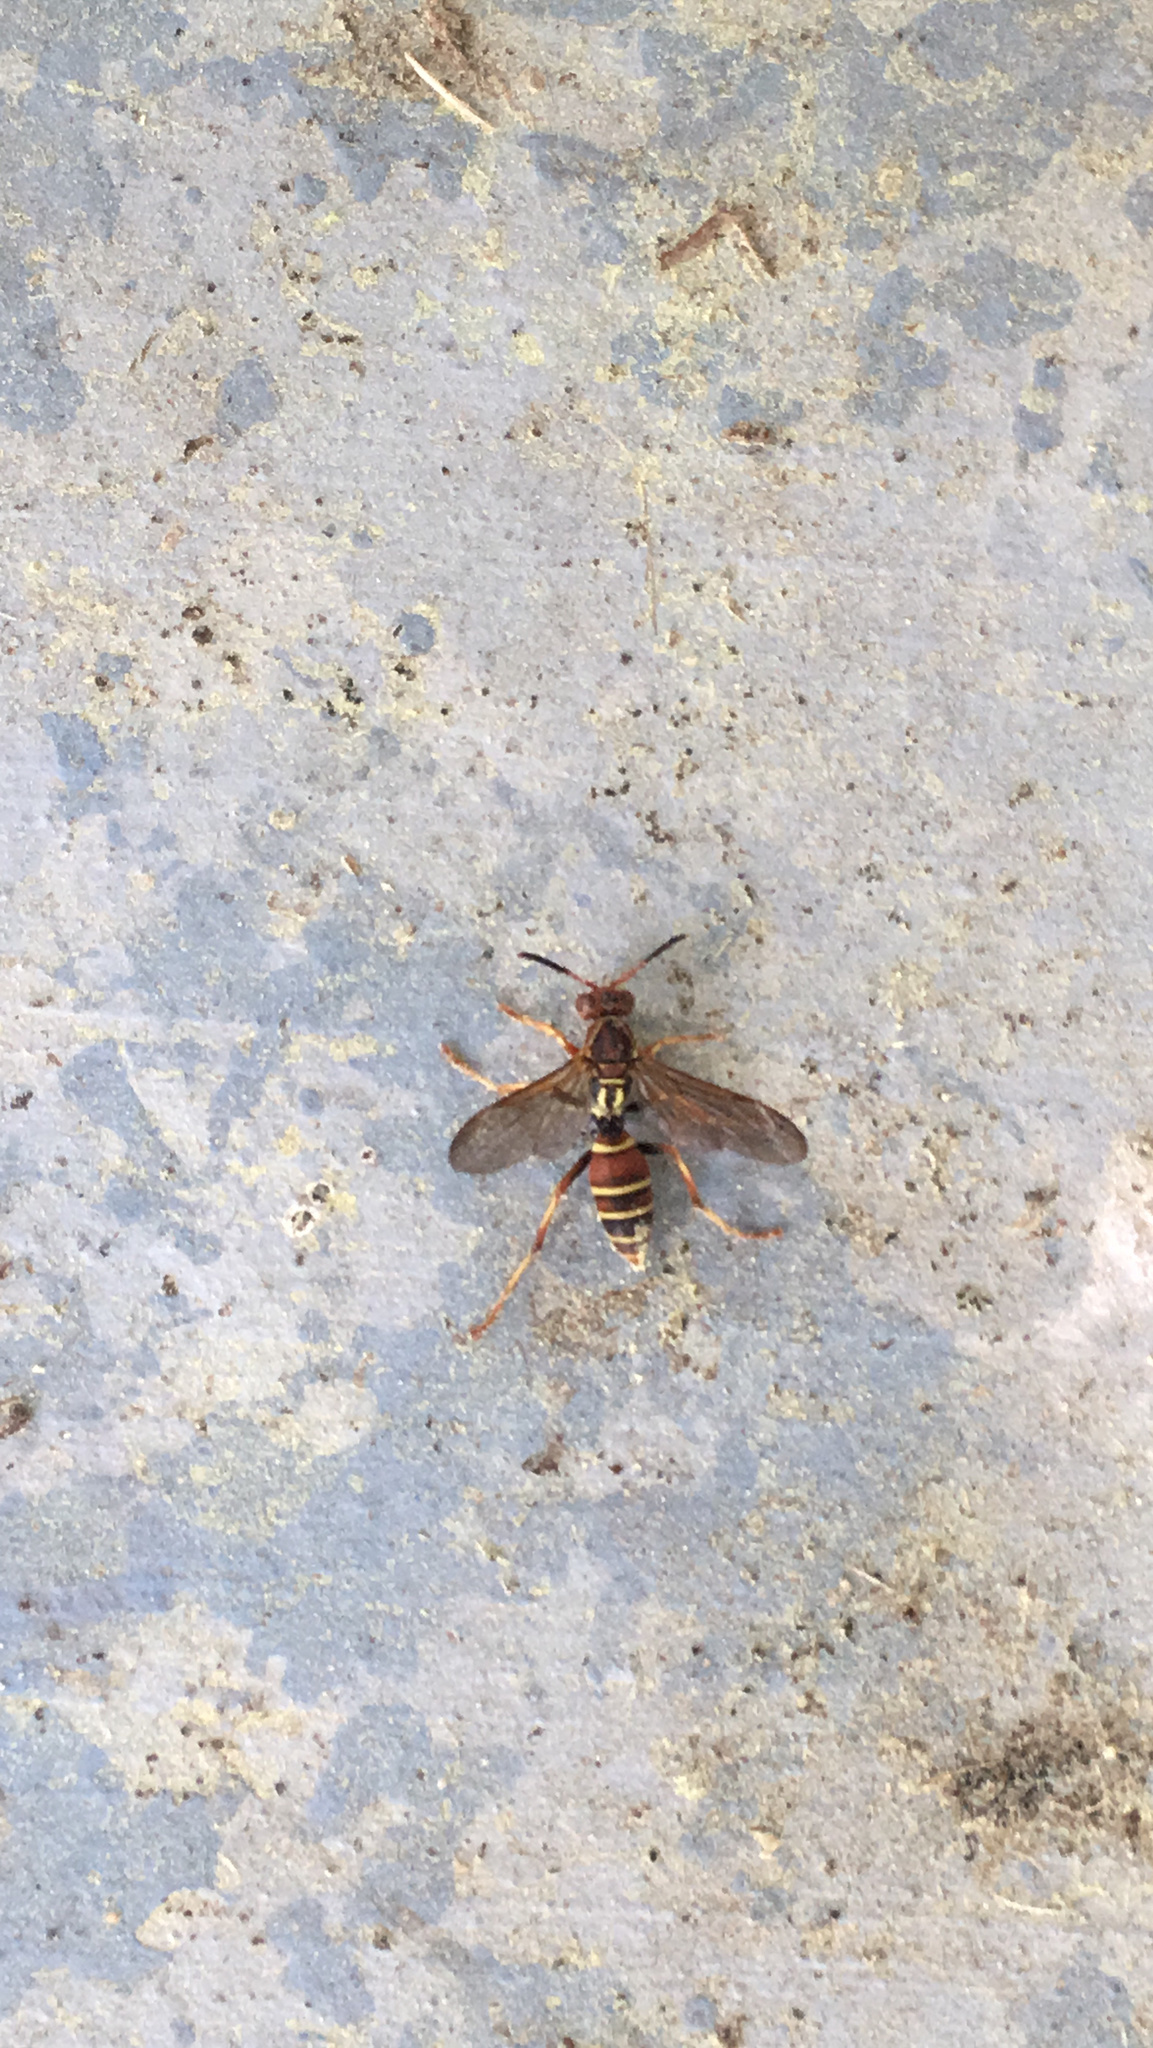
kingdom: Animalia
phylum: Arthropoda
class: Insecta
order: Hymenoptera
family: Eumenidae
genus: Polistes
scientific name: Polistes dorsalis
